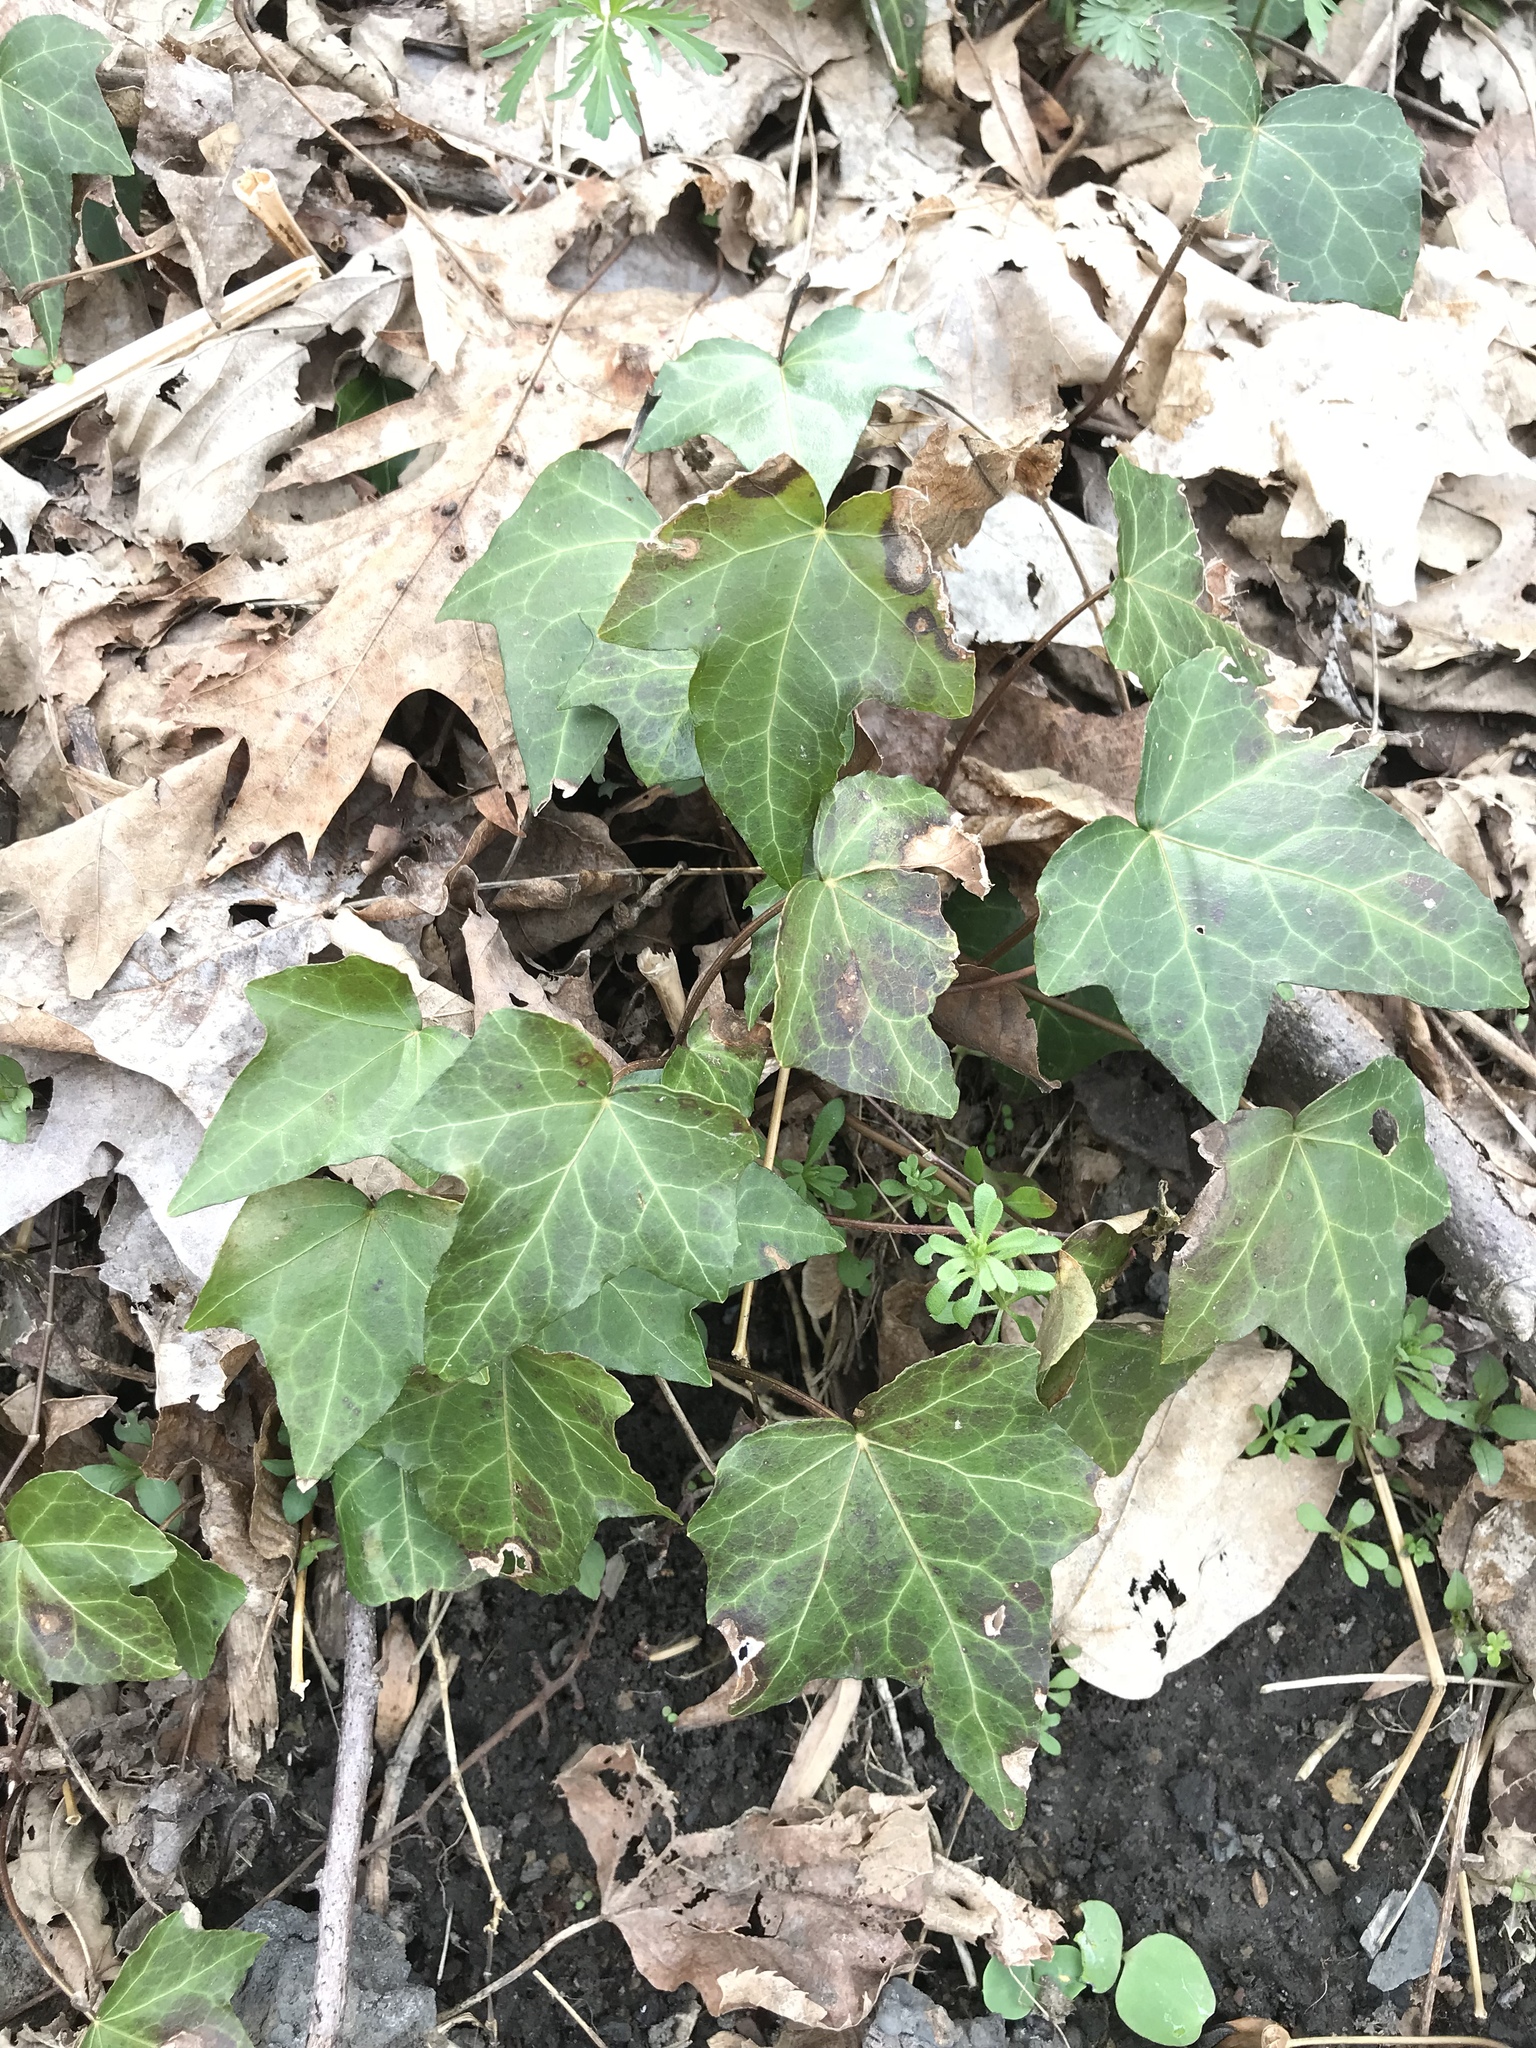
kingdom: Plantae
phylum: Tracheophyta
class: Magnoliopsida
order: Apiales
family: Araliaceae
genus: Hedera
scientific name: Hedera helix
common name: Ivy
